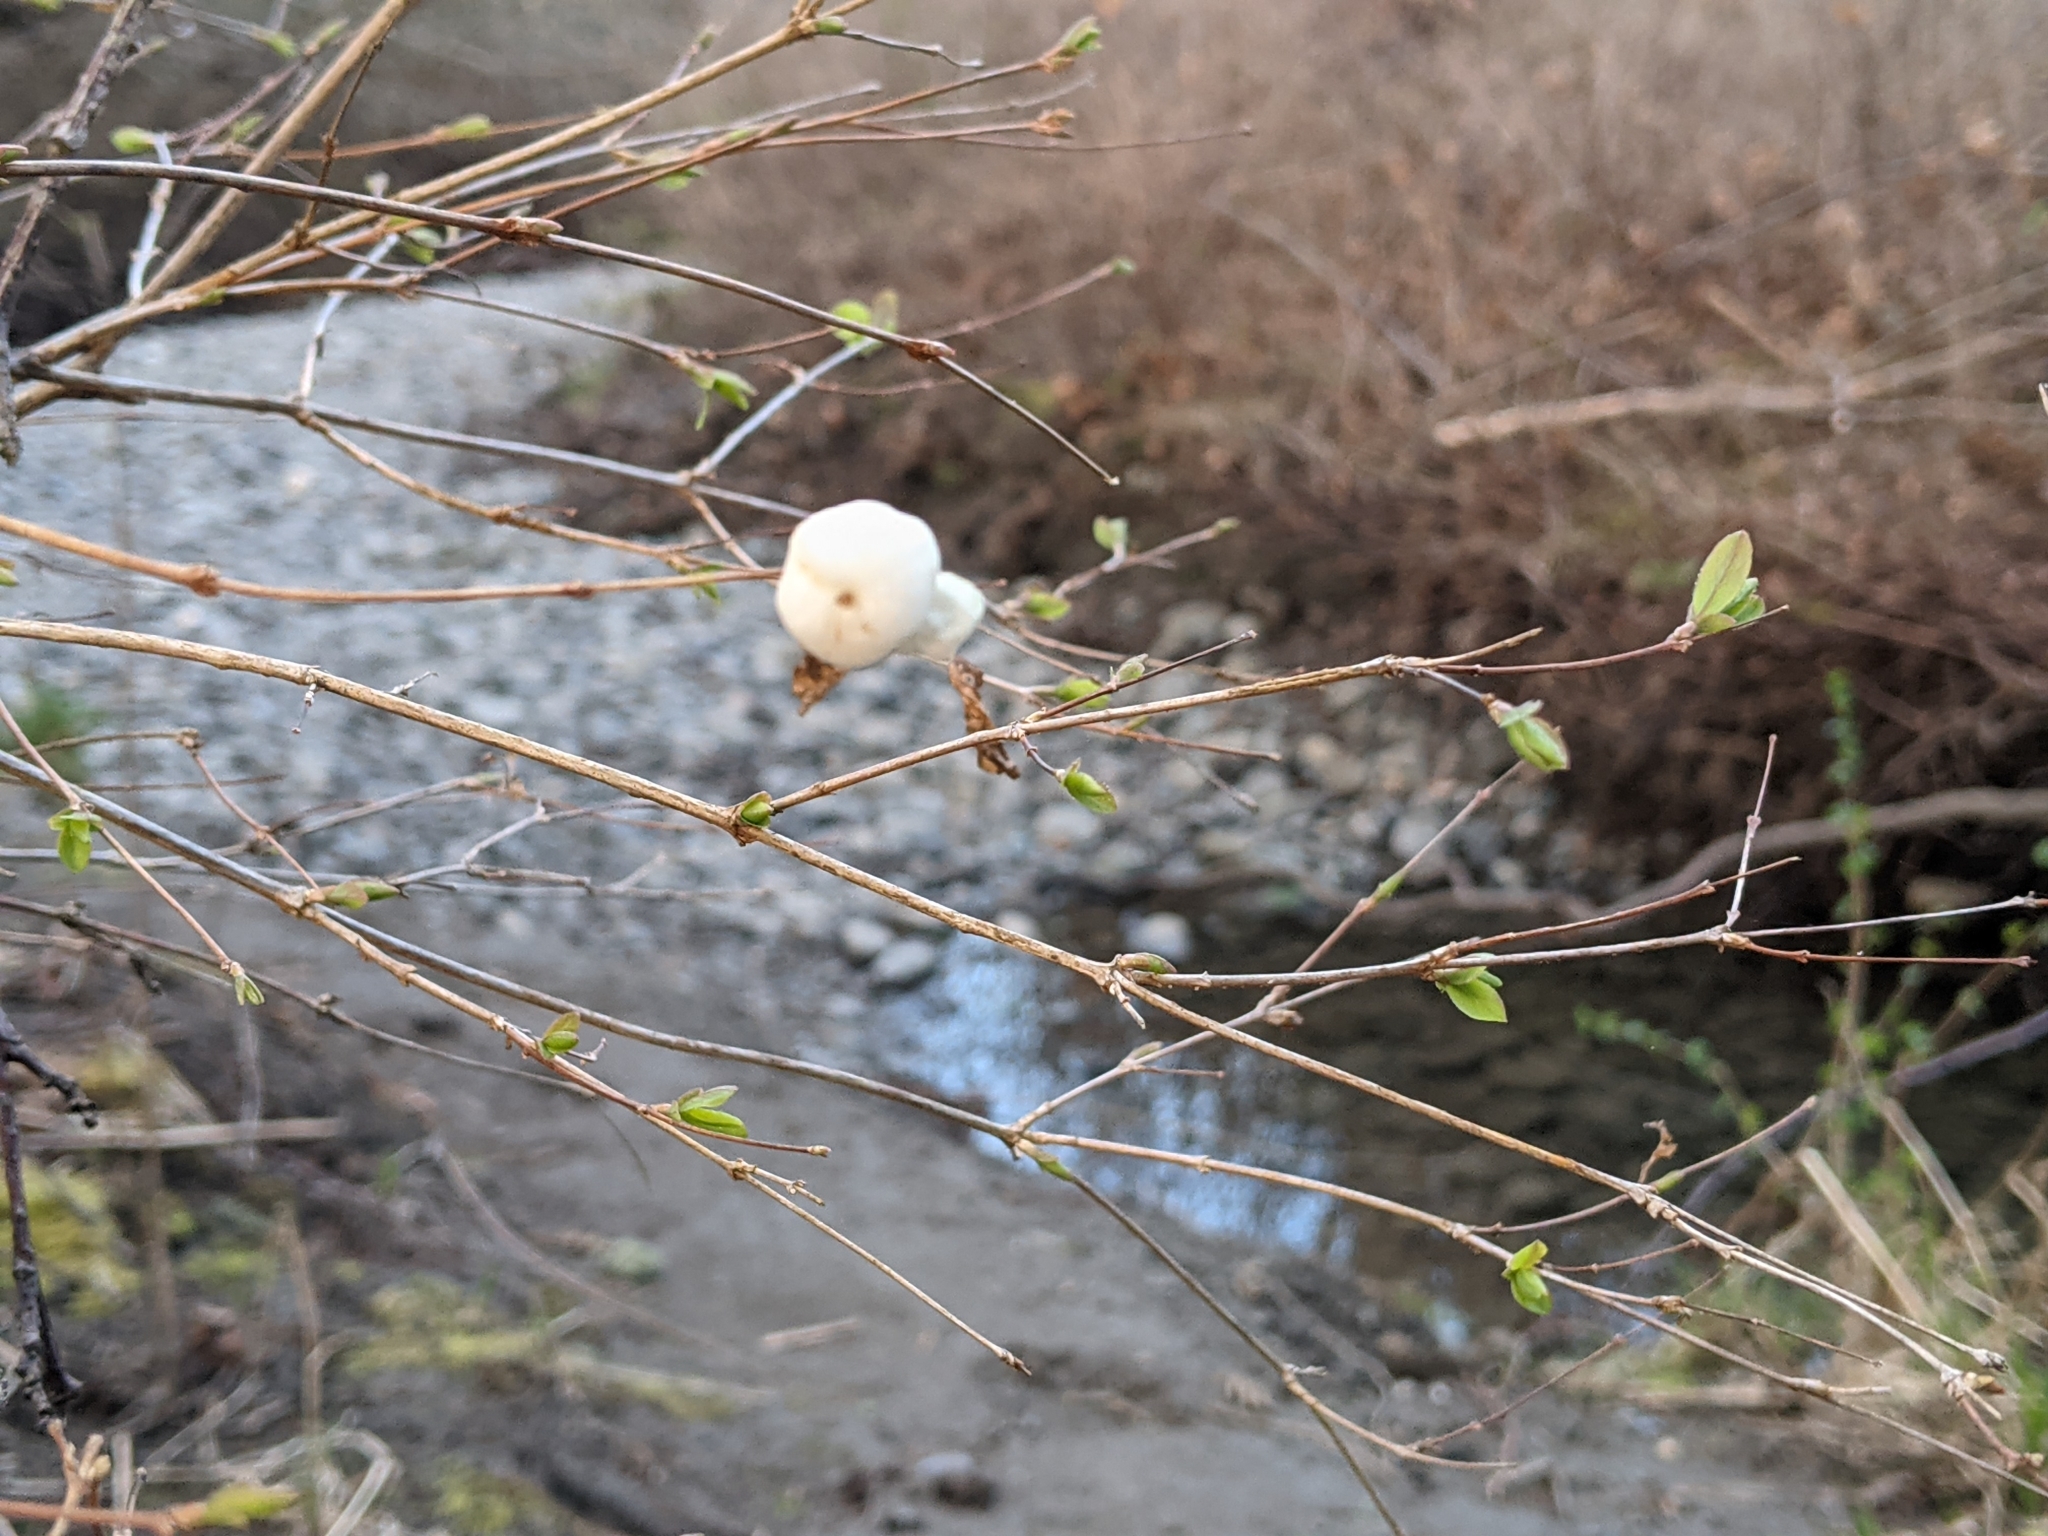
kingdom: Plantae
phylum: Tracheophyta
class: Magnoliopsida
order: Dipsacales
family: Caprifoliaceae
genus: Symphoricarpos
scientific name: Symphoricarpos albus
